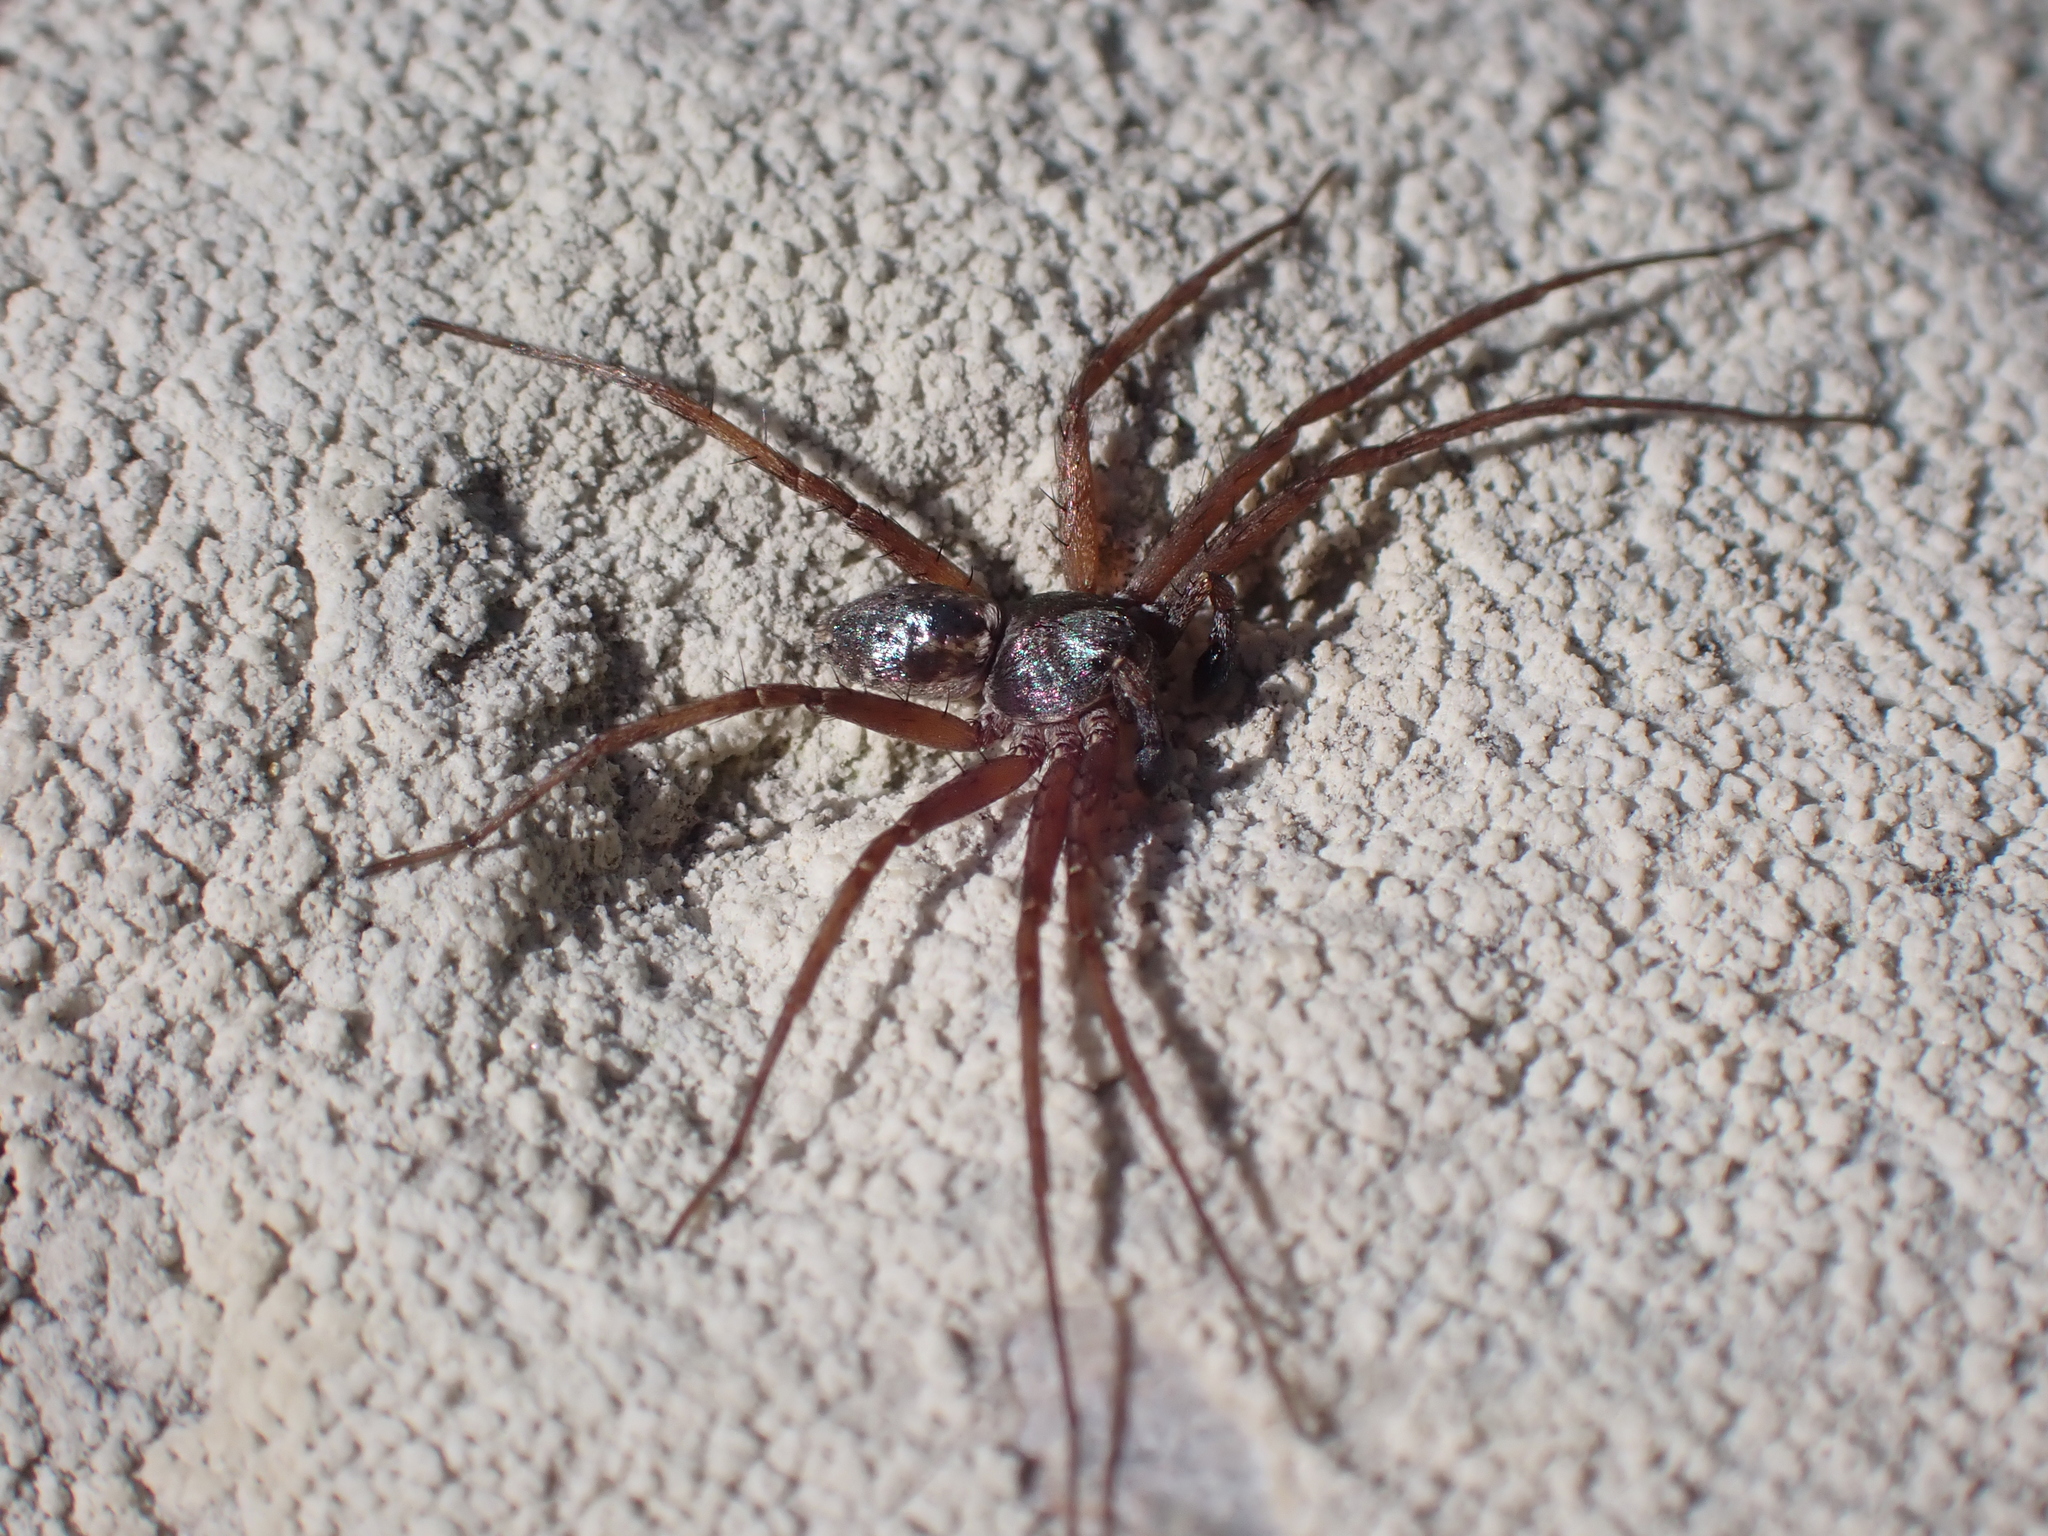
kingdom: Animalia
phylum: Arthropoda
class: Arachnida
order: Araneae
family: Philodromidae
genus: Philodromus
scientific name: Philodromus
